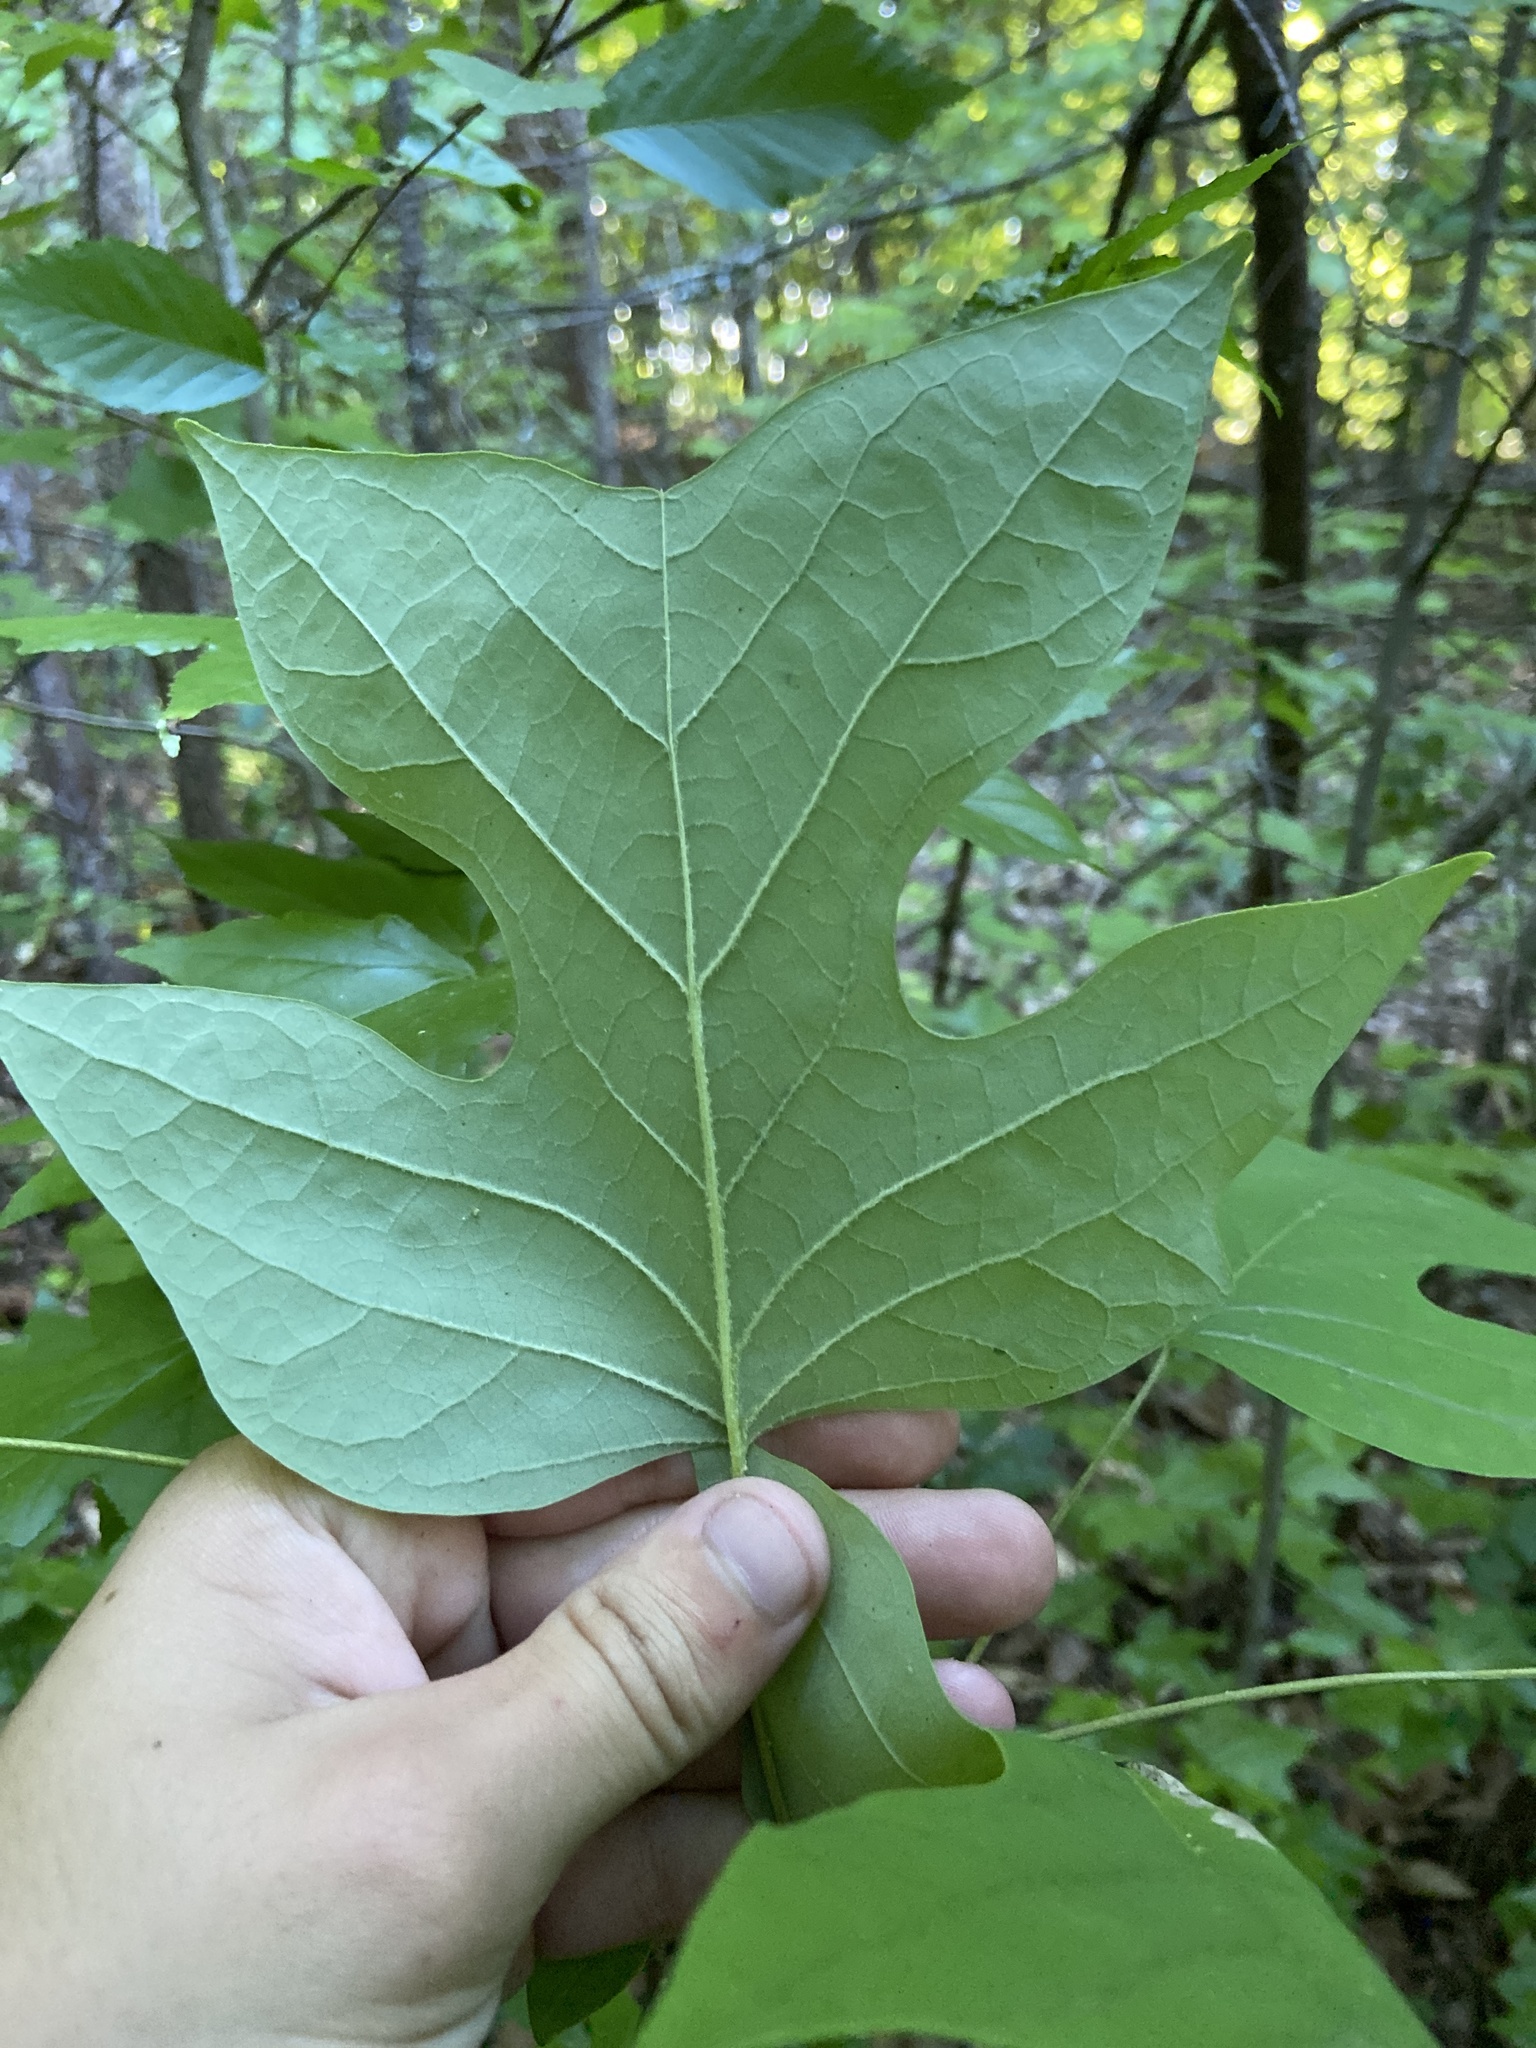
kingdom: Plantae
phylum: Tracheophyta
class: Magnoliopsida
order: Magnoliales
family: Magnoliaceae
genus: Liriodendron
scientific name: Liriodendron tulipifera
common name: Tulip tree
